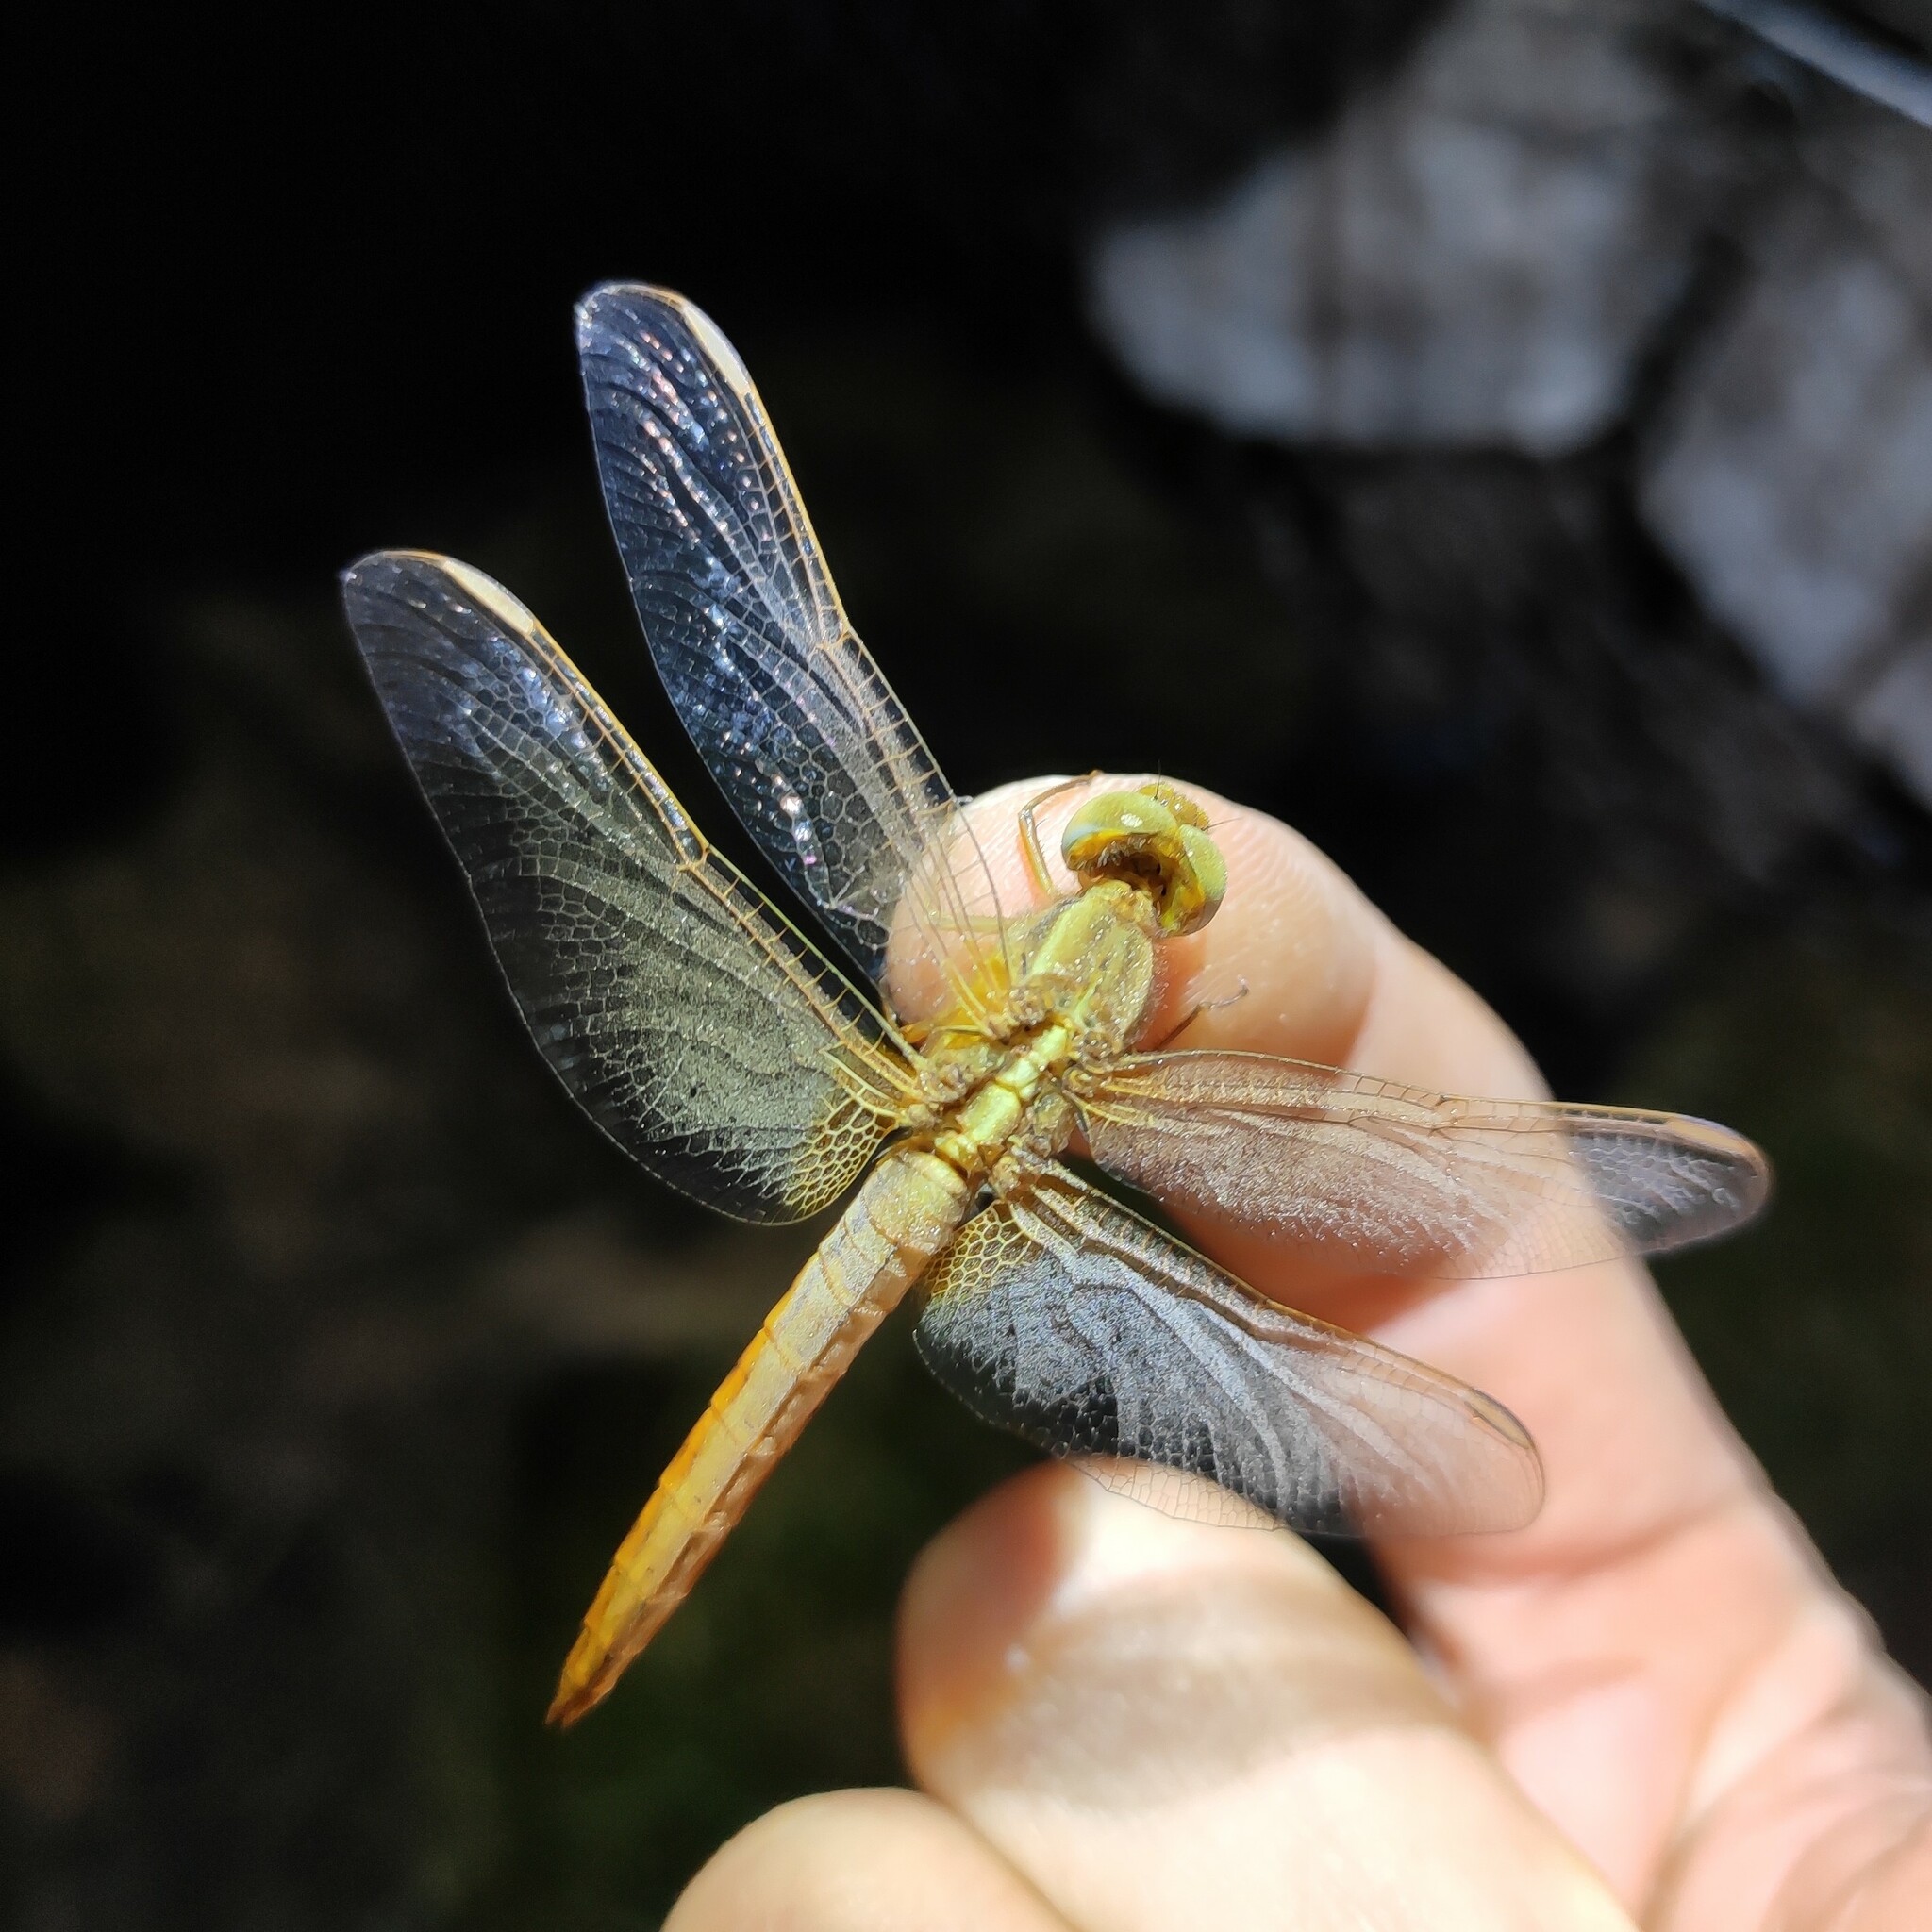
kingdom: Animalia
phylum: Arthropoda
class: Insecta
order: Odonata
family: Libellulidae
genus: Crocothemis
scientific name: Crocothemis erythraea
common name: Scarlet dragonfly
